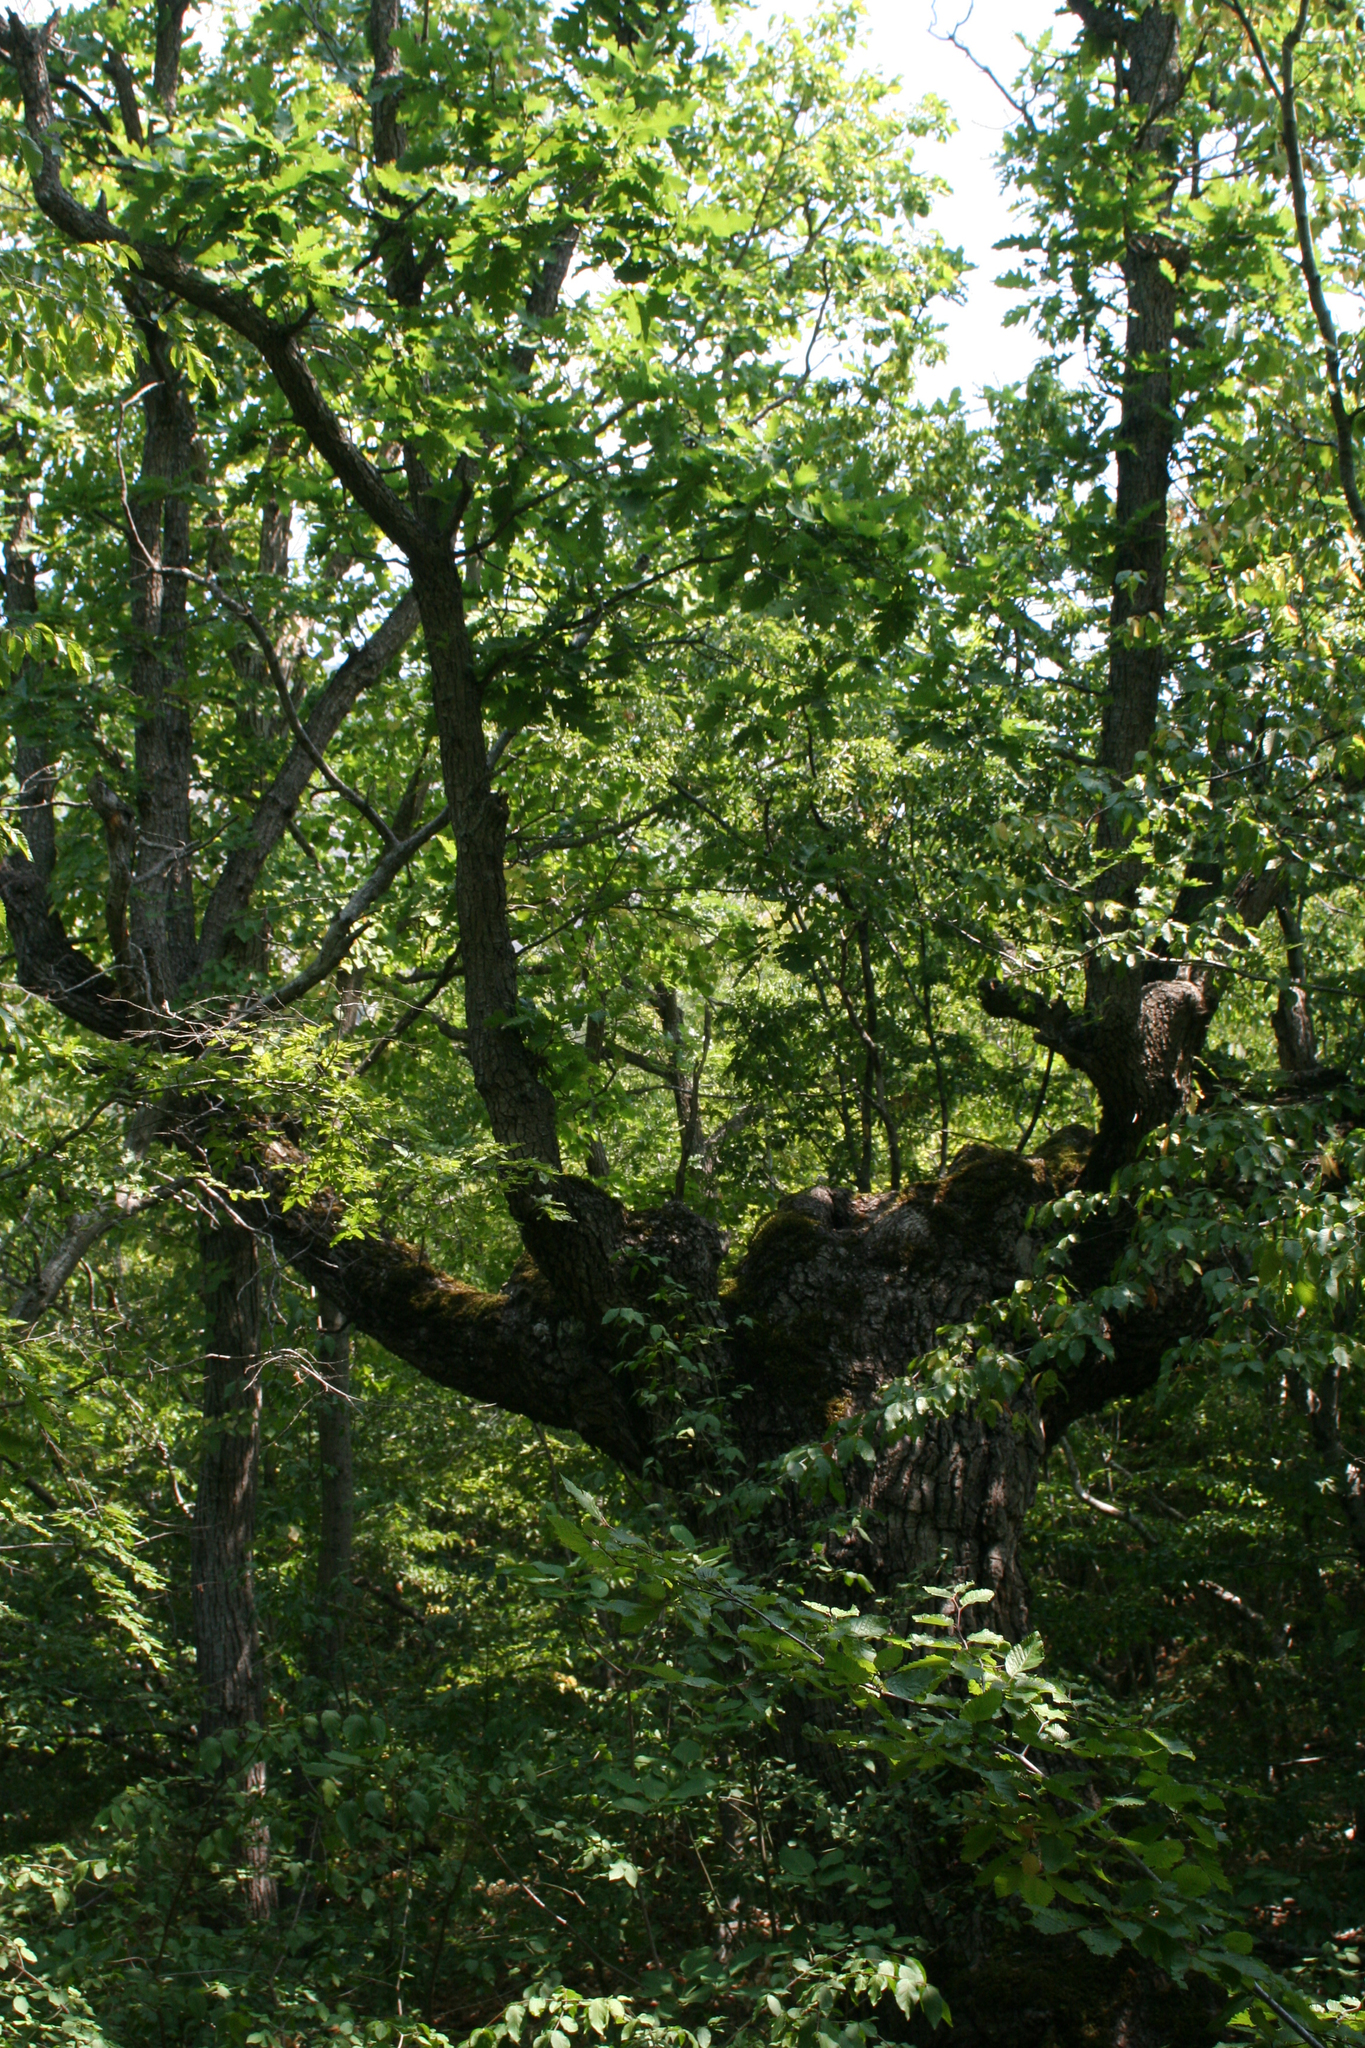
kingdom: Plantae
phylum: Tracheophyta
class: Magnoliopsida
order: Fagales
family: Betulaceae
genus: Carpinus
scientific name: Carpinus orientalis
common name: Eastern hornbeam
